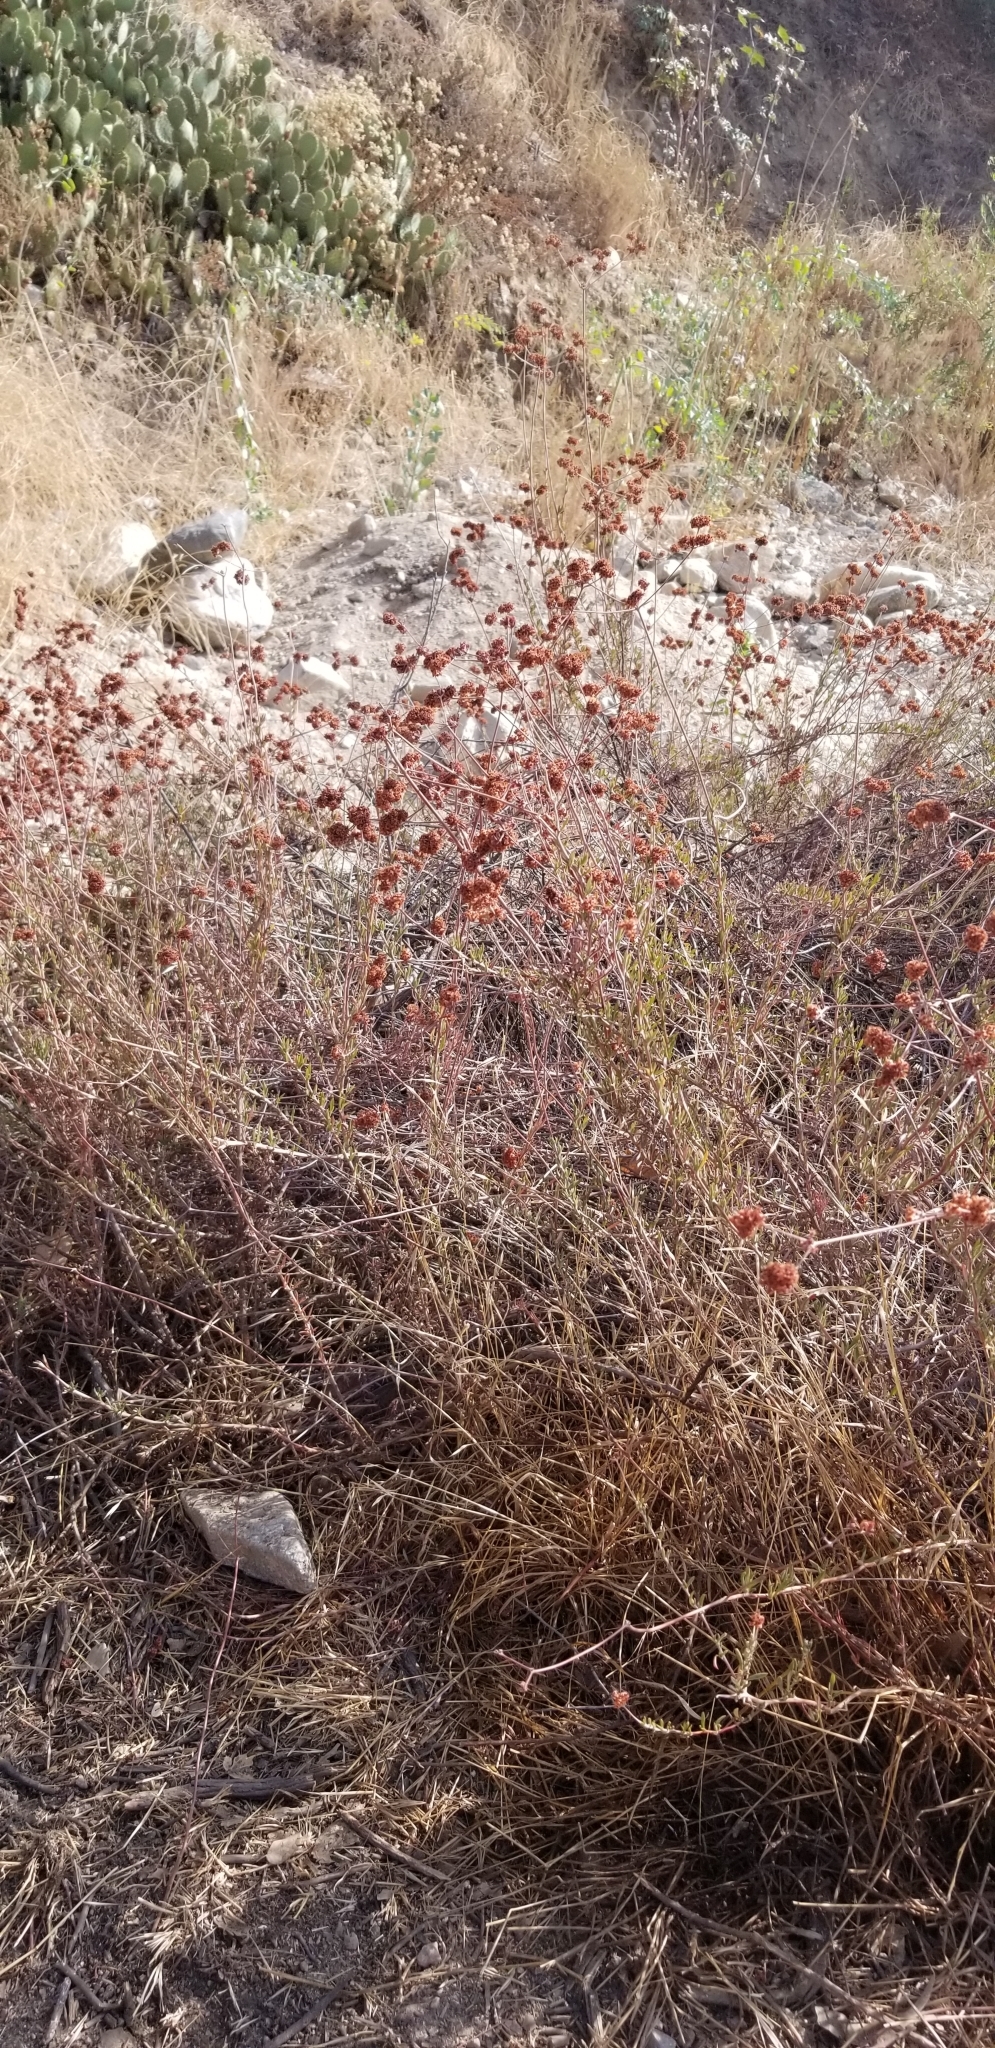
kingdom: Plantae
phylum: Tracheophyta
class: Magnoliopsida
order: Caryophyllales
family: Polygonaceae
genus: Eriogonum
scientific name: Eriogonum fasciculatum
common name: California wild buckwheat
